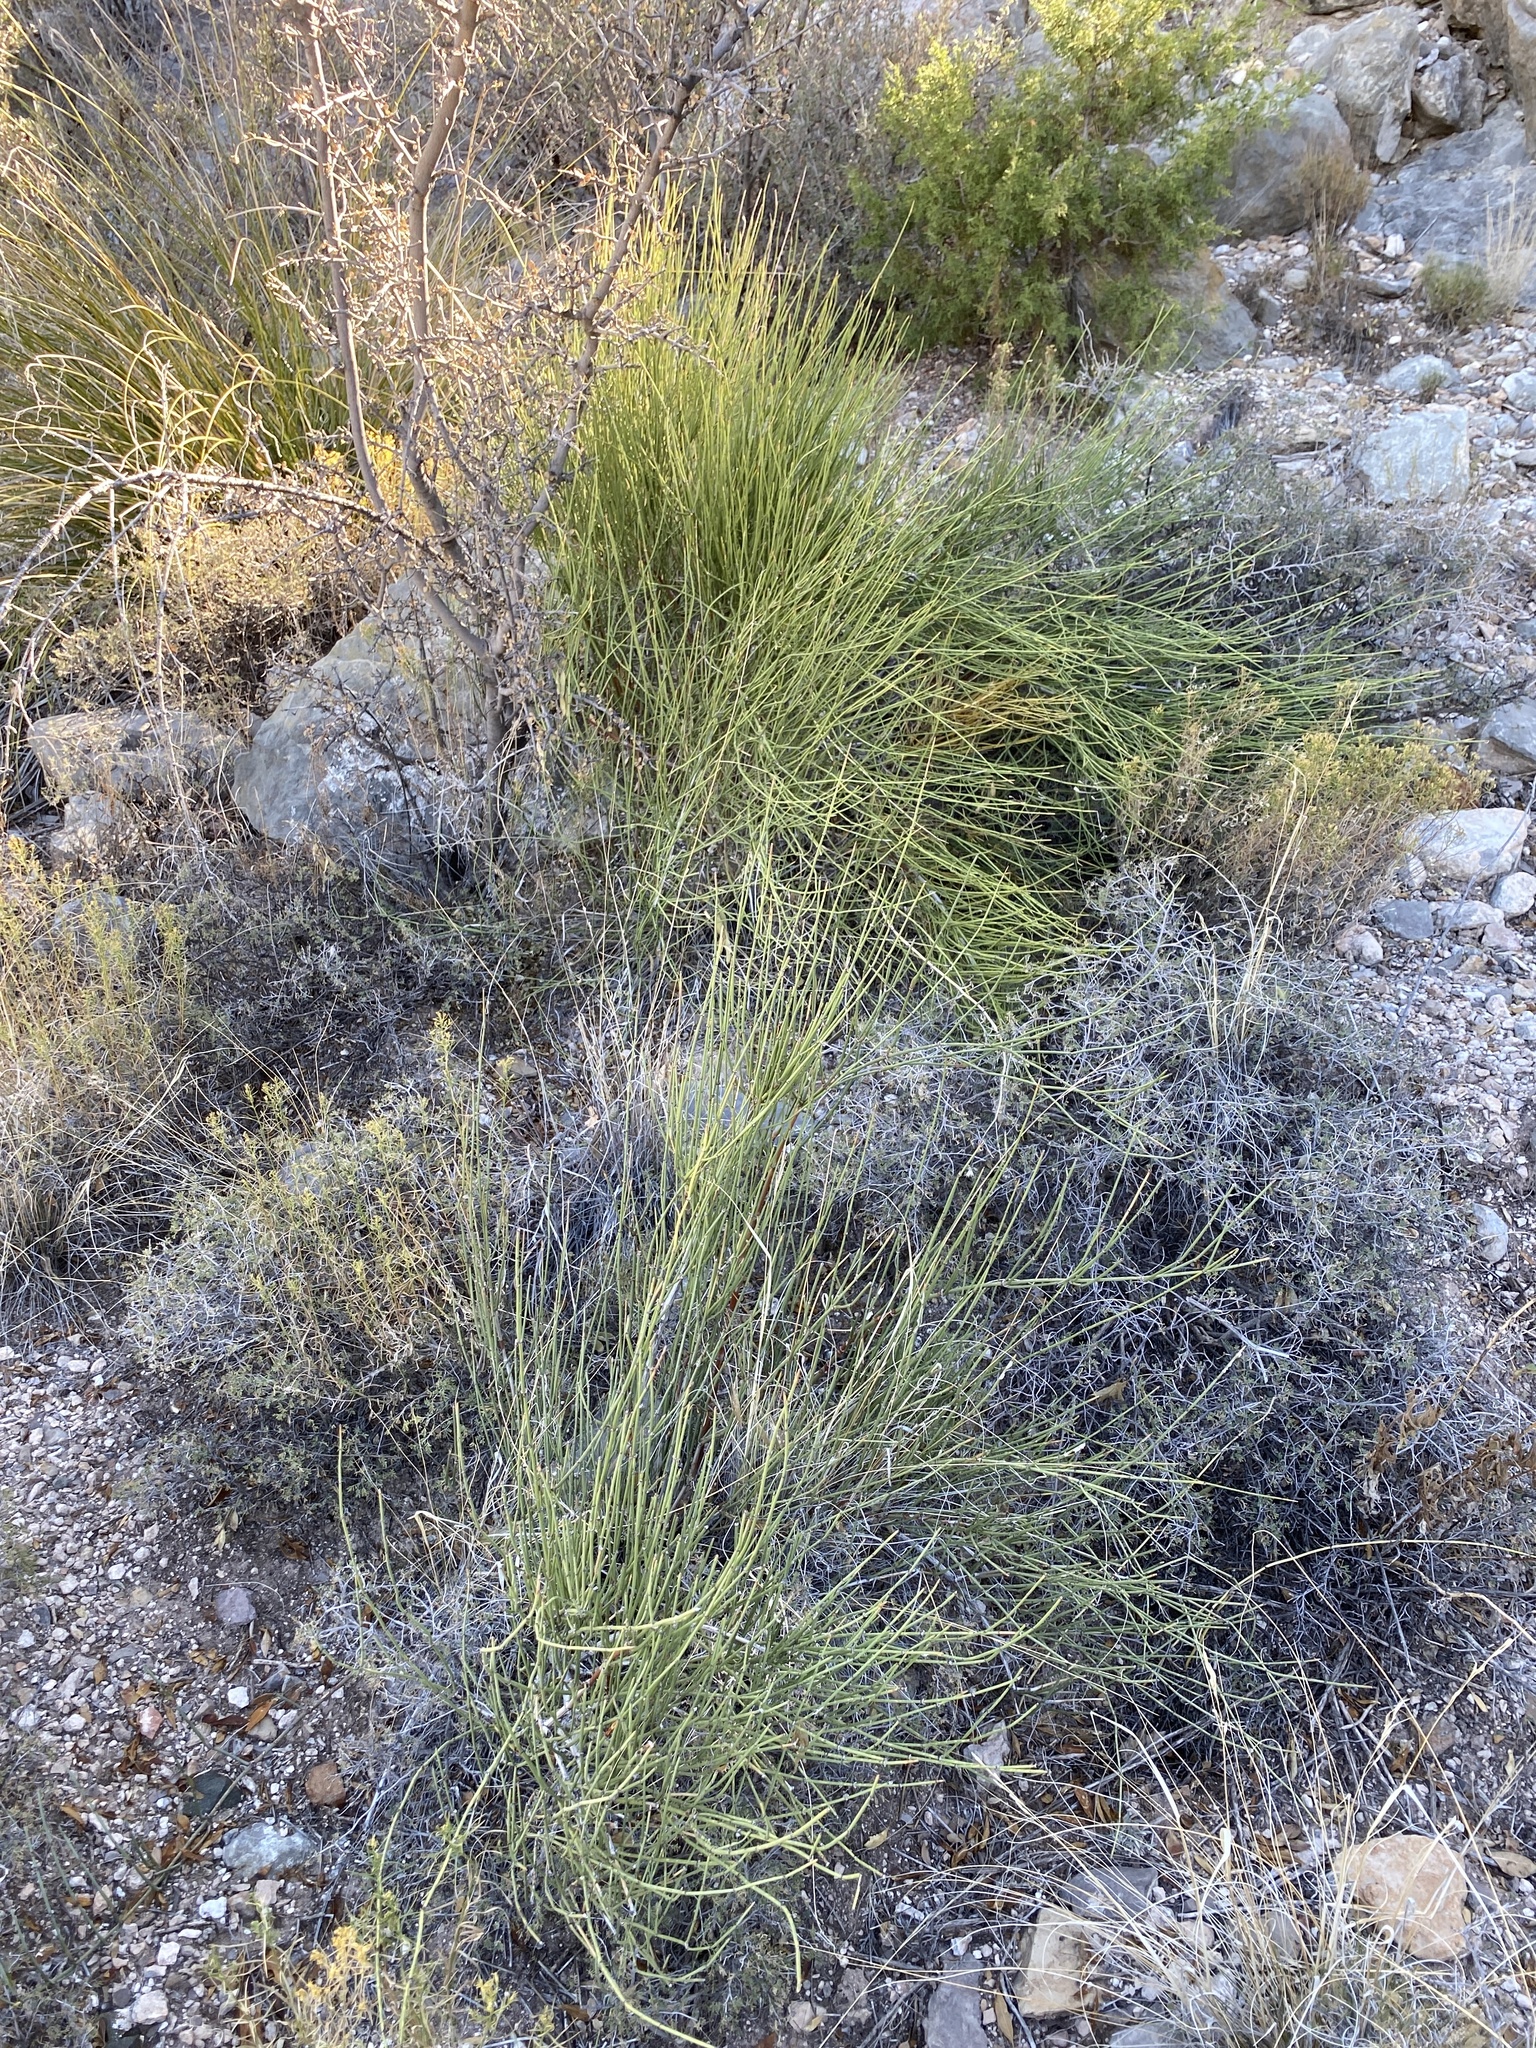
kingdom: Plantae
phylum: Tracheophyta
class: Gnetopsida
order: Ephedrales
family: Ephedraceae
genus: Ephedra
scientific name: Ephedra trifurca
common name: Mexican-tea
